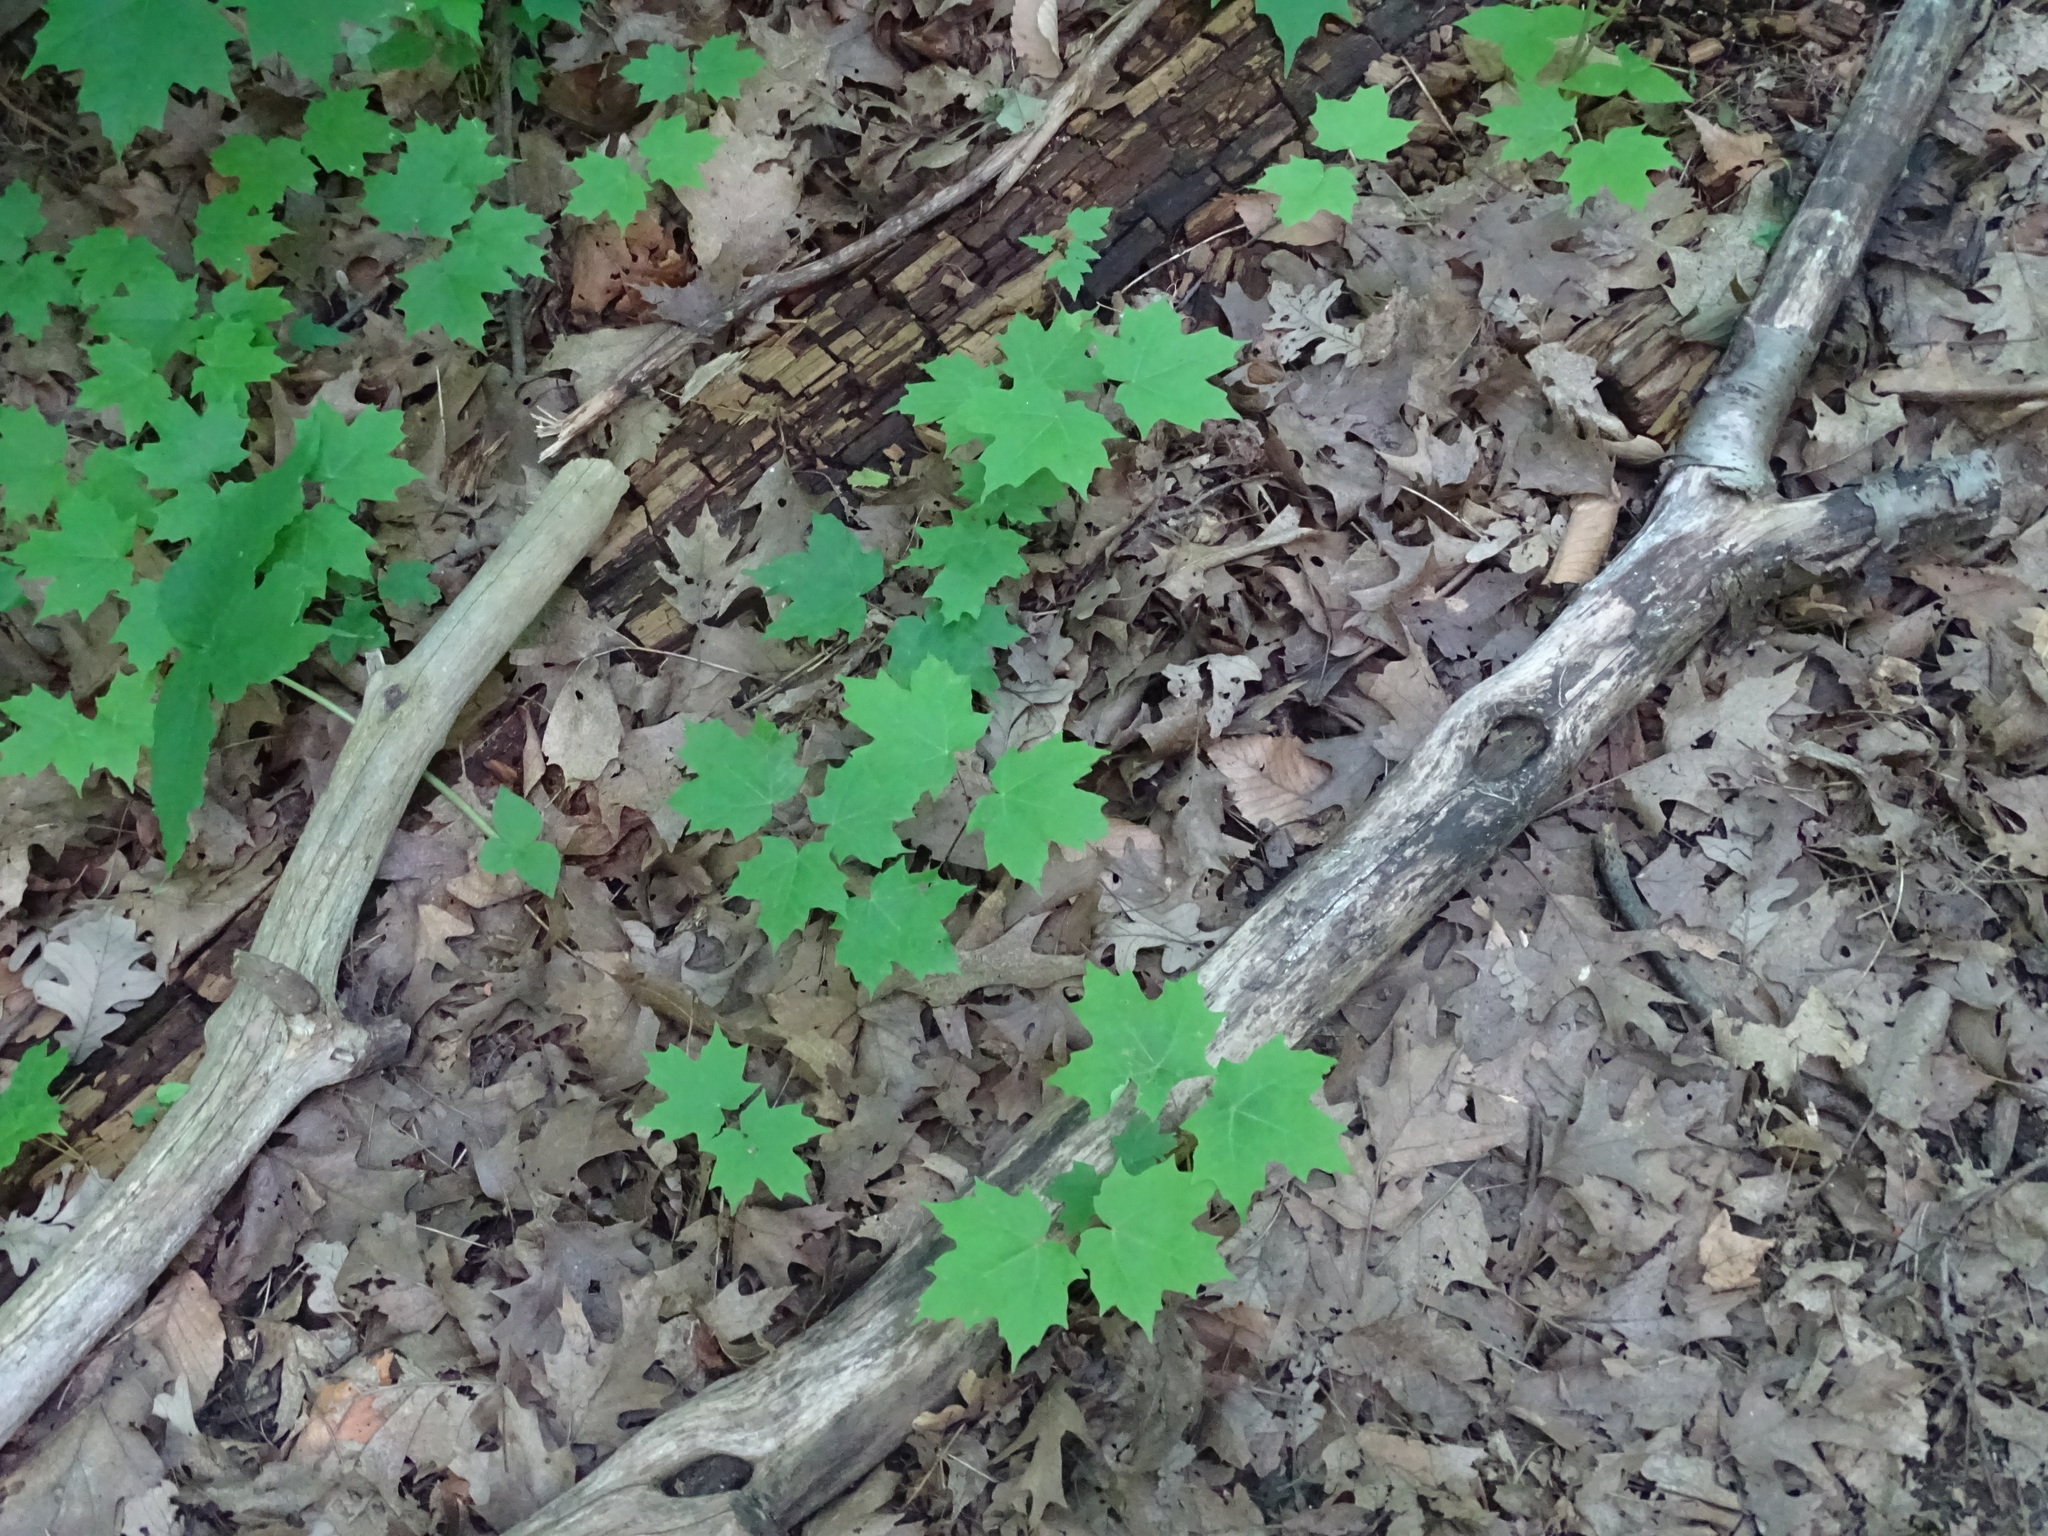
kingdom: Plantae
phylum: Tracheophyta
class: Magnoliopsida
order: Sapindales
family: Sapindaceae
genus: Acer
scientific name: Acer saccharum
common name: Sugar maple
